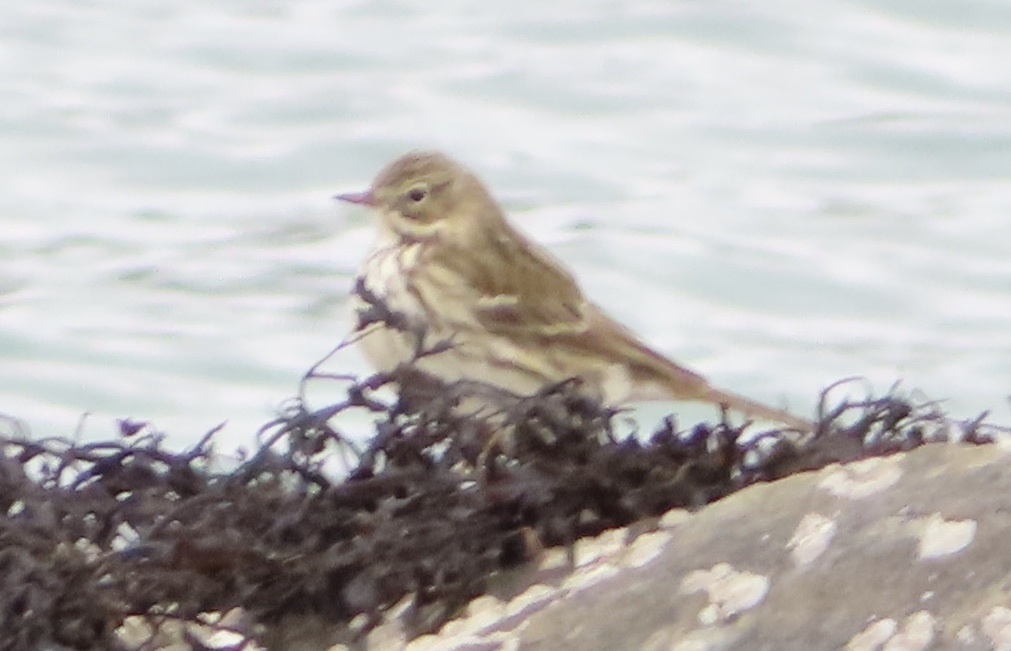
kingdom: Animalia
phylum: Chordata
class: Aves
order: Passeriformes
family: Motacillidae
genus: Anthus
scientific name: Anthus pratensis
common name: Meadow pipit
